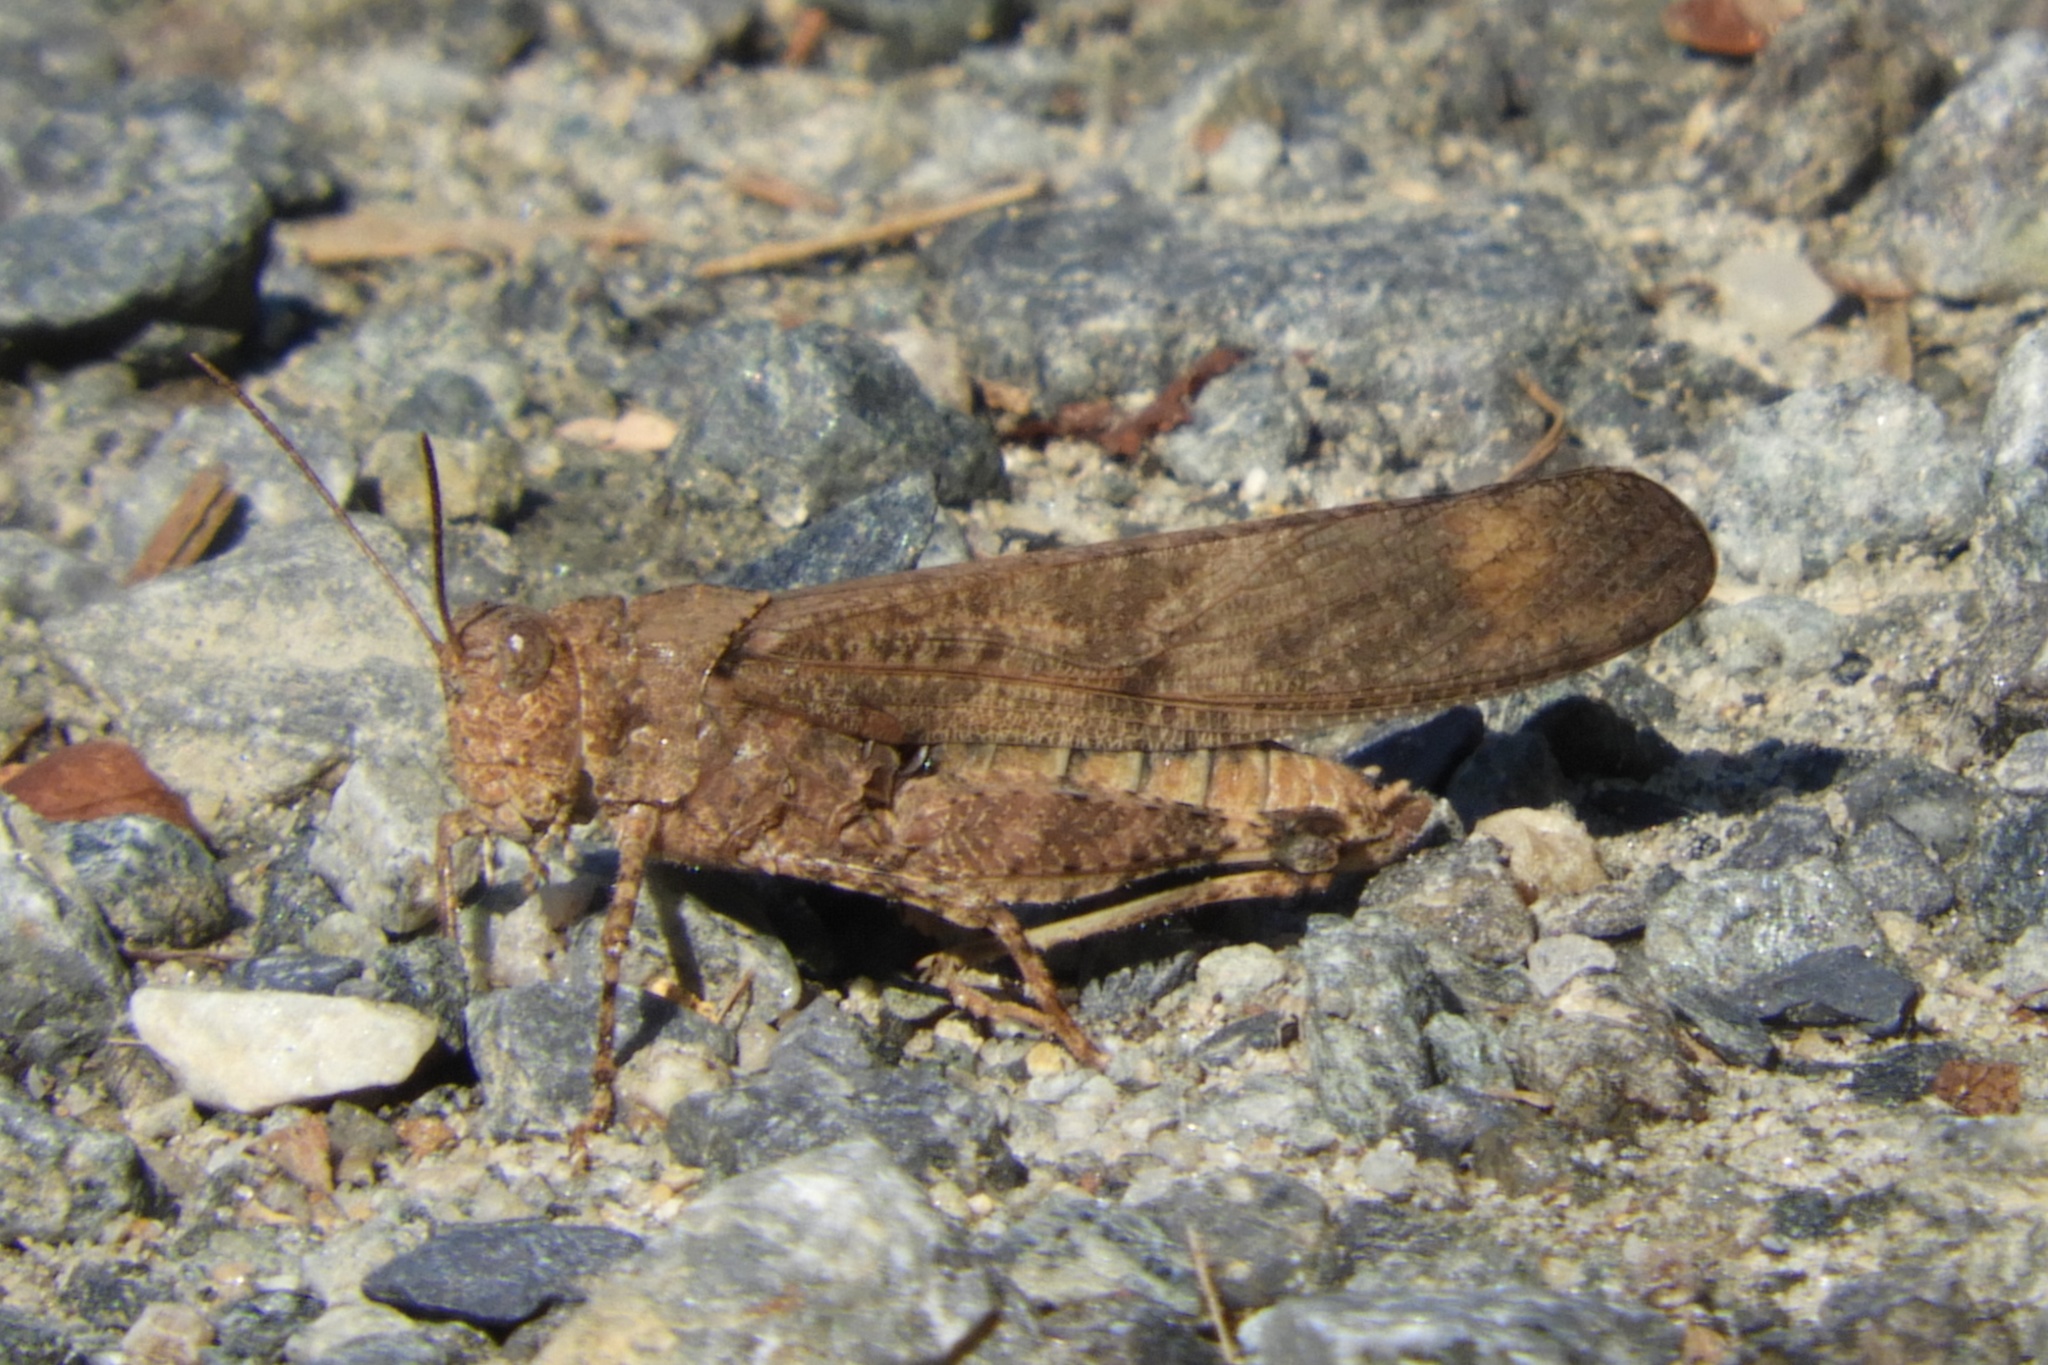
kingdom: Animalia
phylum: Arthropoda
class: Insecta
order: Orthoptera
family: Acrididae
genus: Dissosteira
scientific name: Dissosteira carolina
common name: Carolina grasshopper
